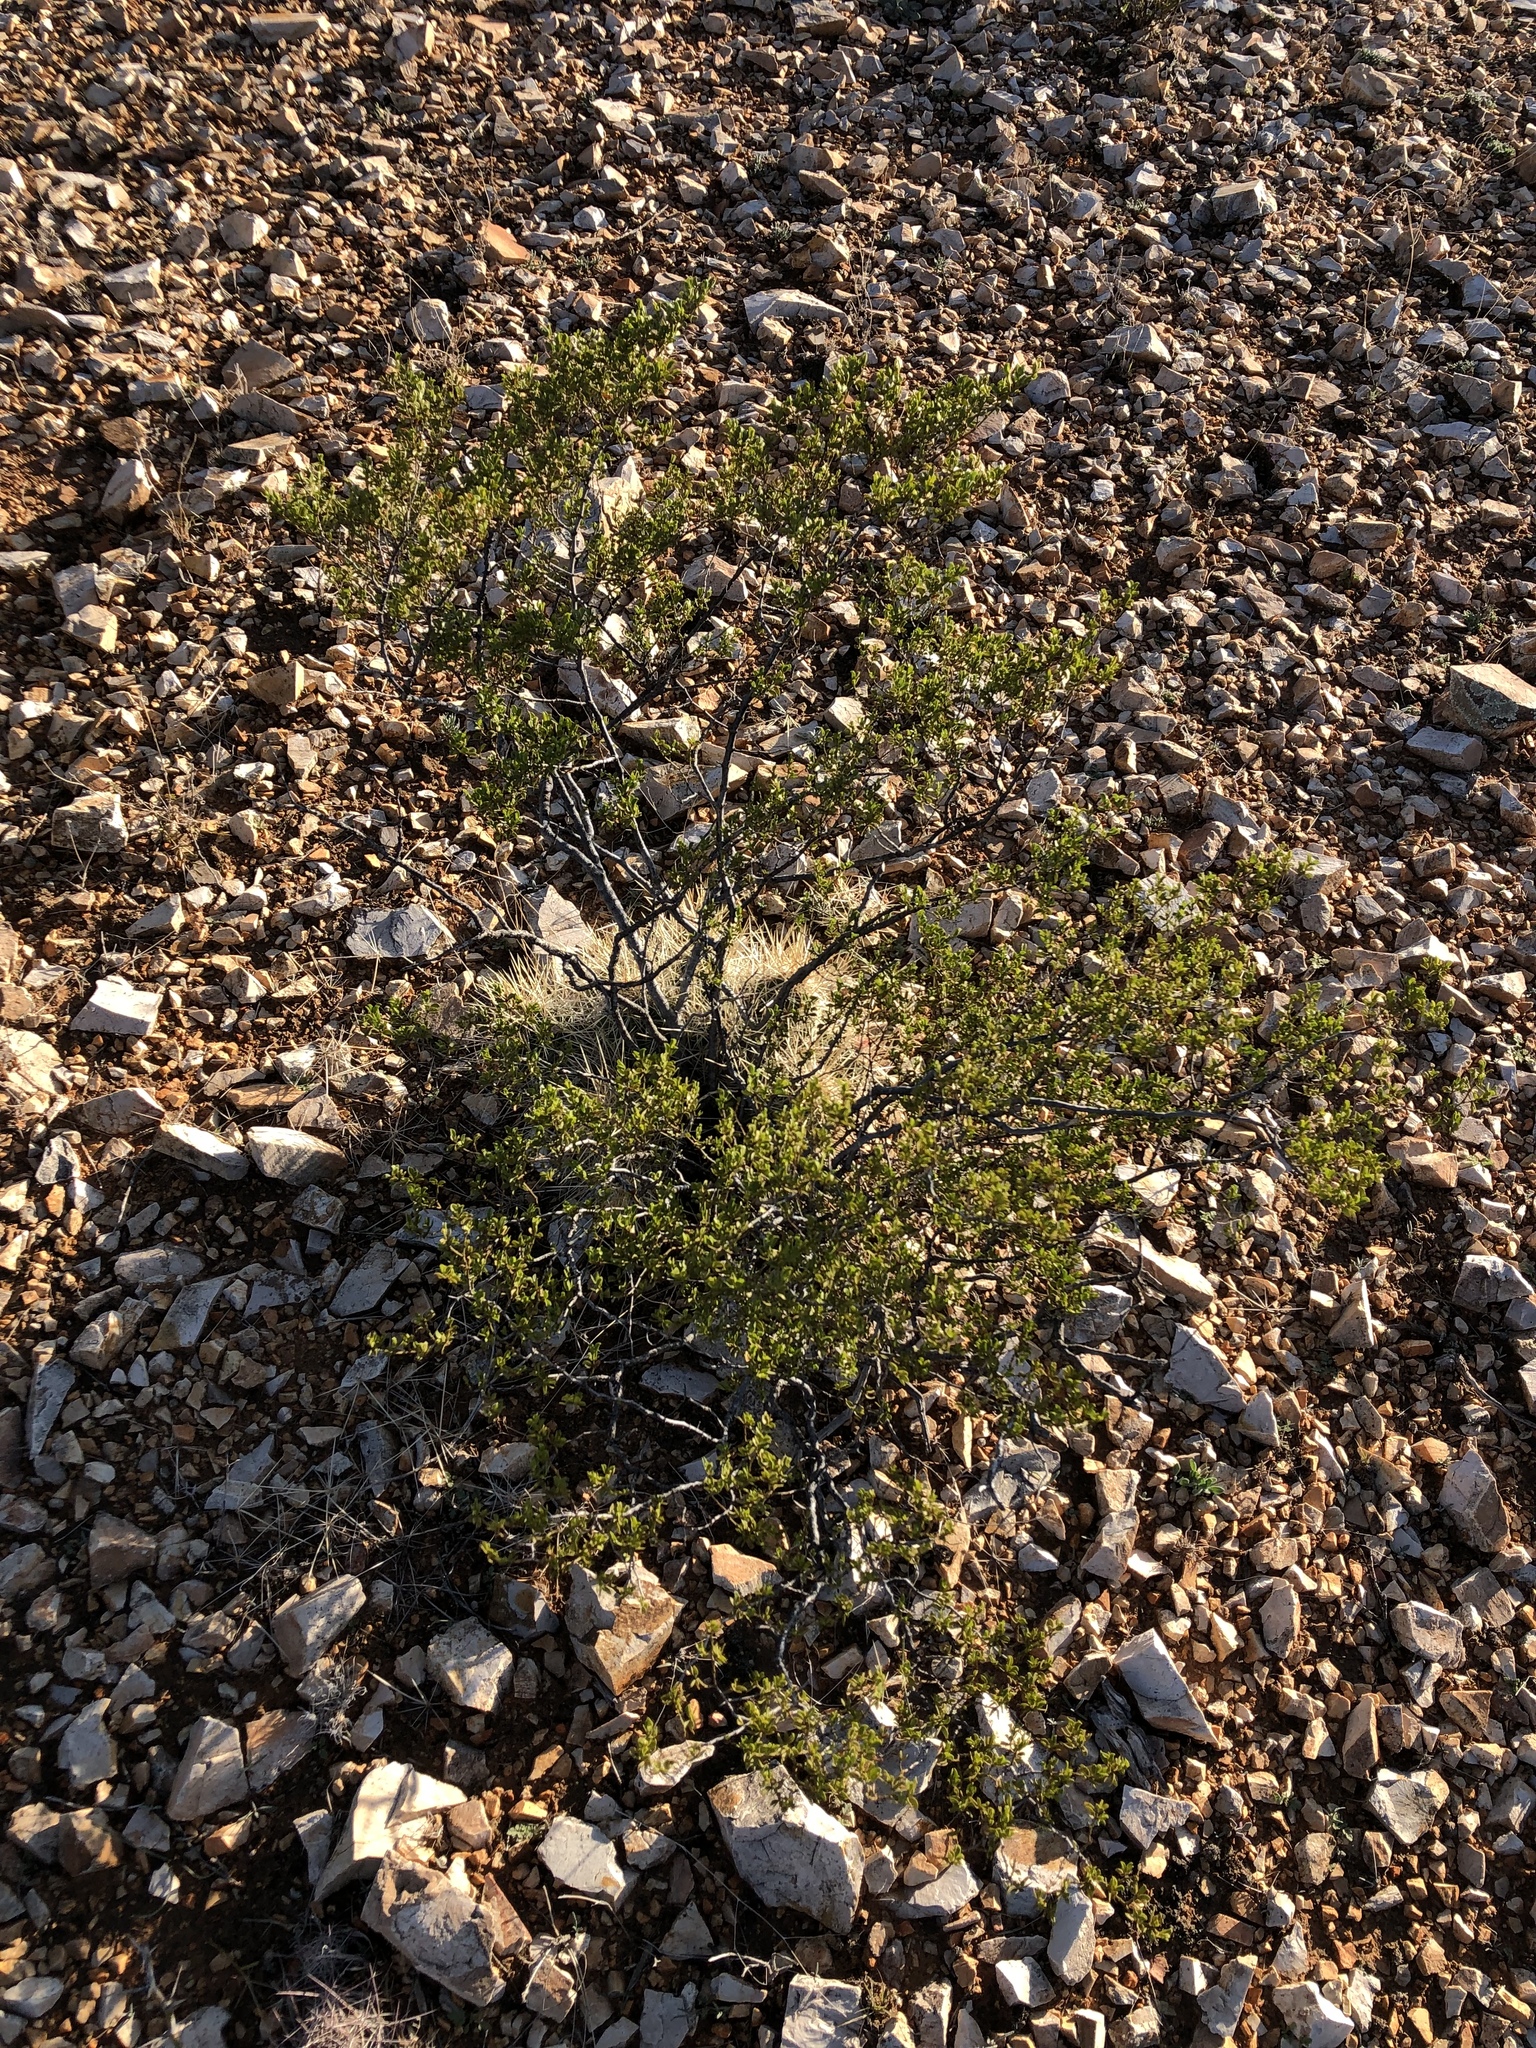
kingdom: Plantae
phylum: Tracheophyta
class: Magnoliopsida
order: Zygophyllales
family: Zygophyllaceae
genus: Larrea
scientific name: Larrea tridentata
